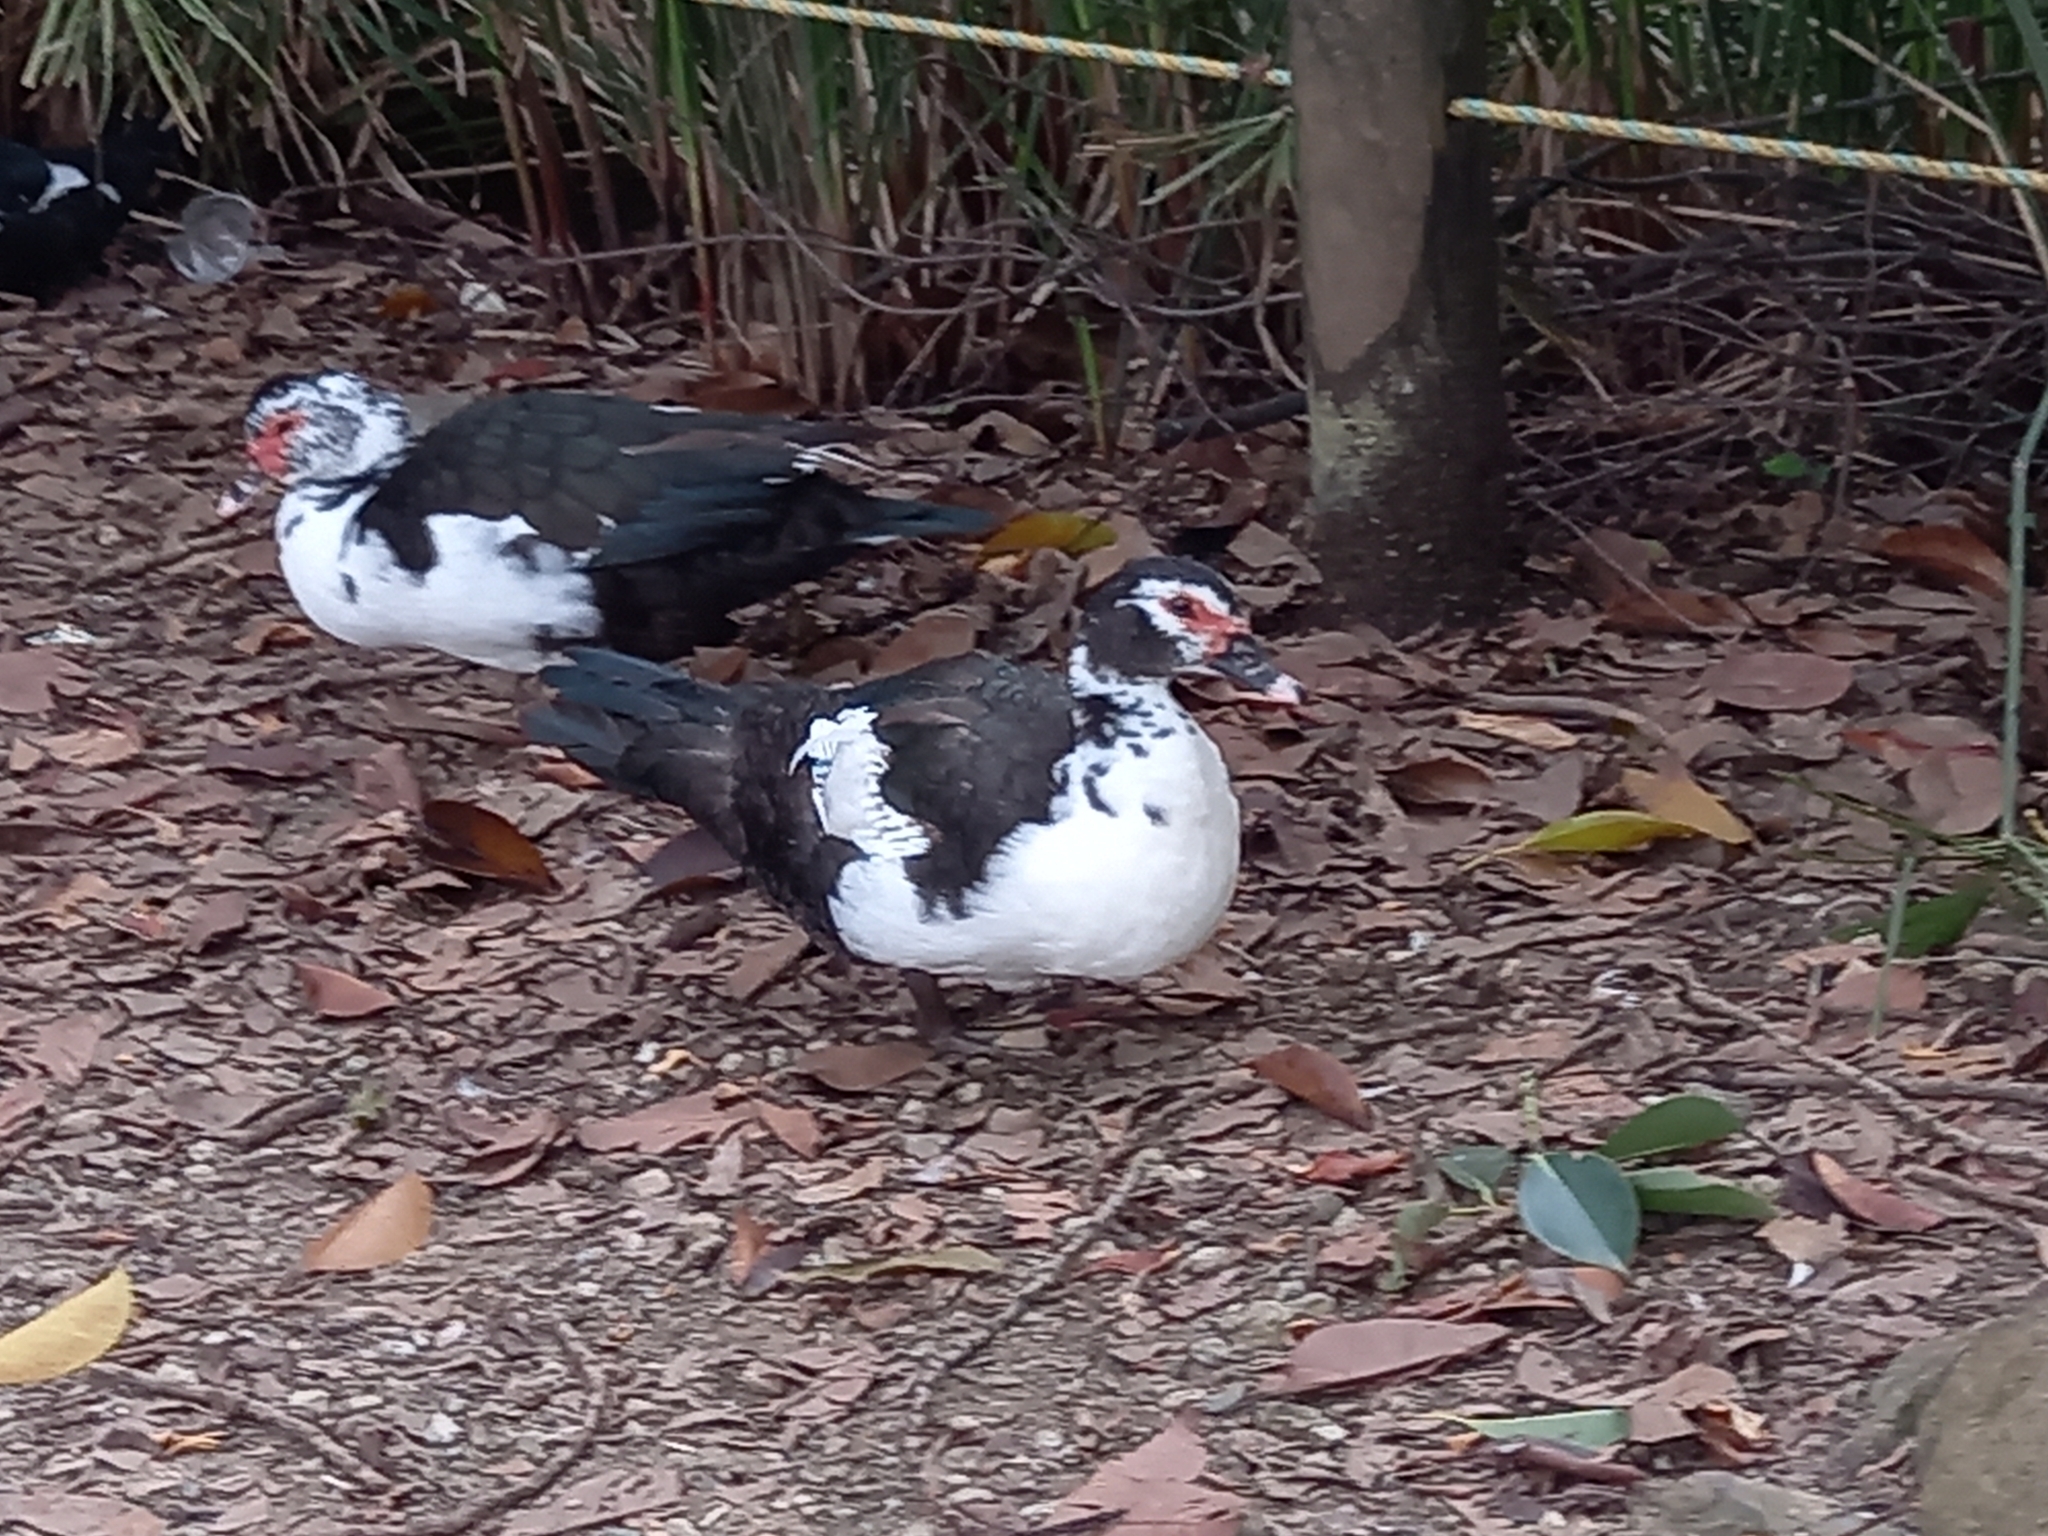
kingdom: Animalia
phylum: Chordata
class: Aves
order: Anseriformes
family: Anatidae
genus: Cairina
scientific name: Cairina moschata
